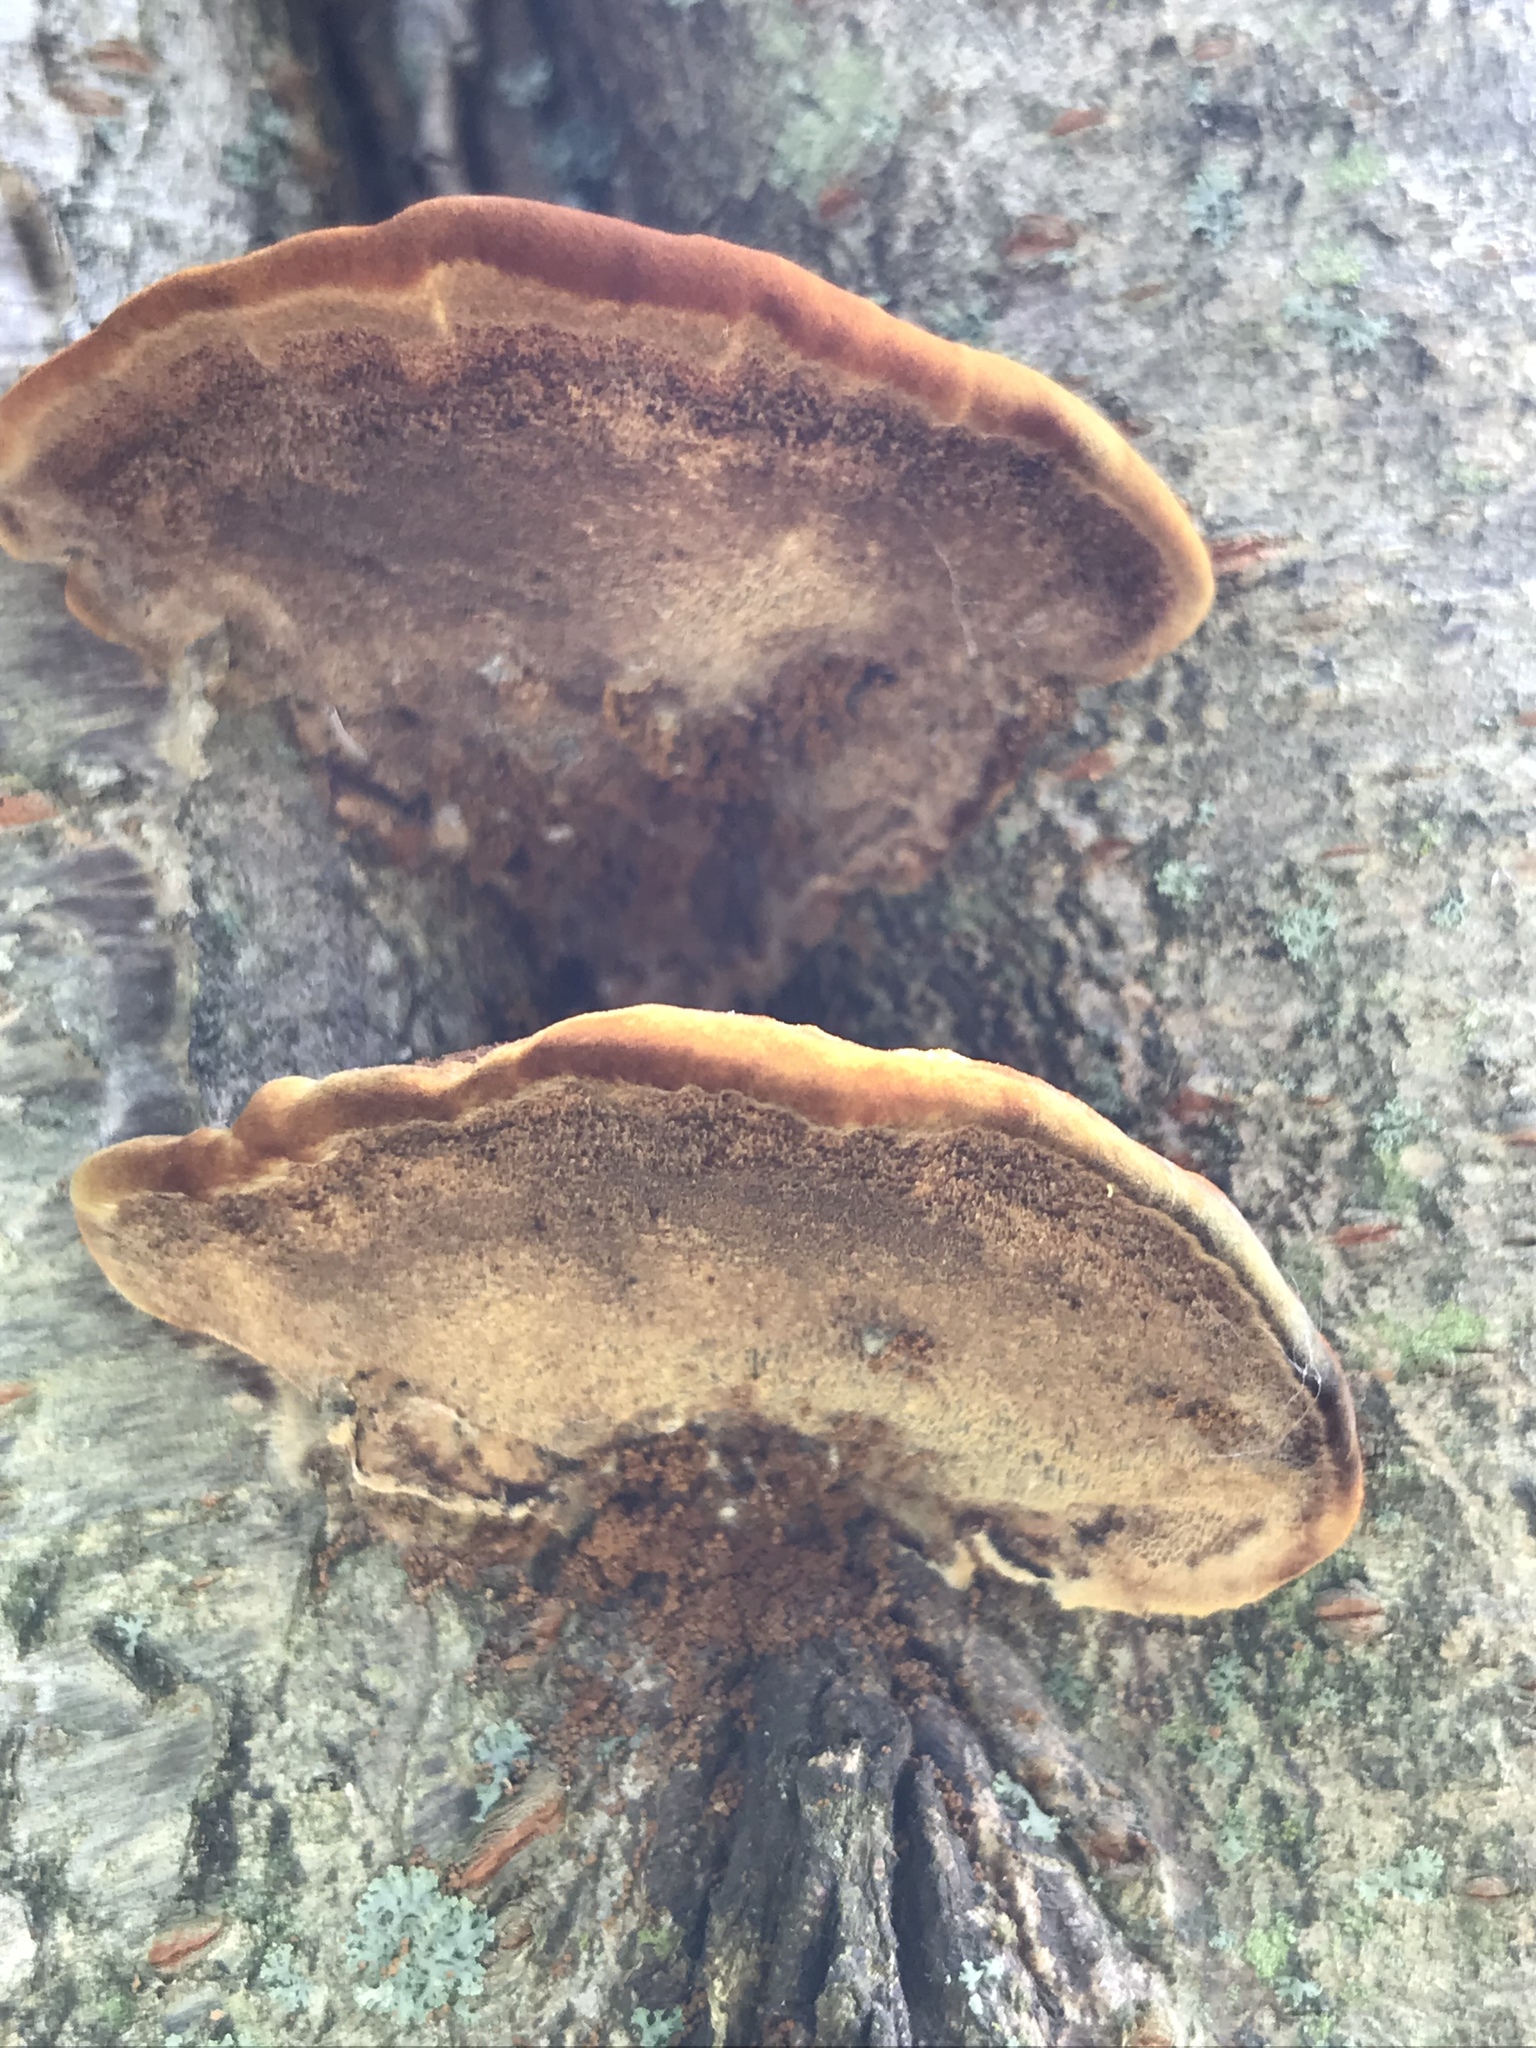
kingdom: Fungi
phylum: Basidiomycota
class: Agaricomycetes
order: Hymenochaetales
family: Hymenochaetaceae
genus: Phellinus
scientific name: Phellinus gilvus
